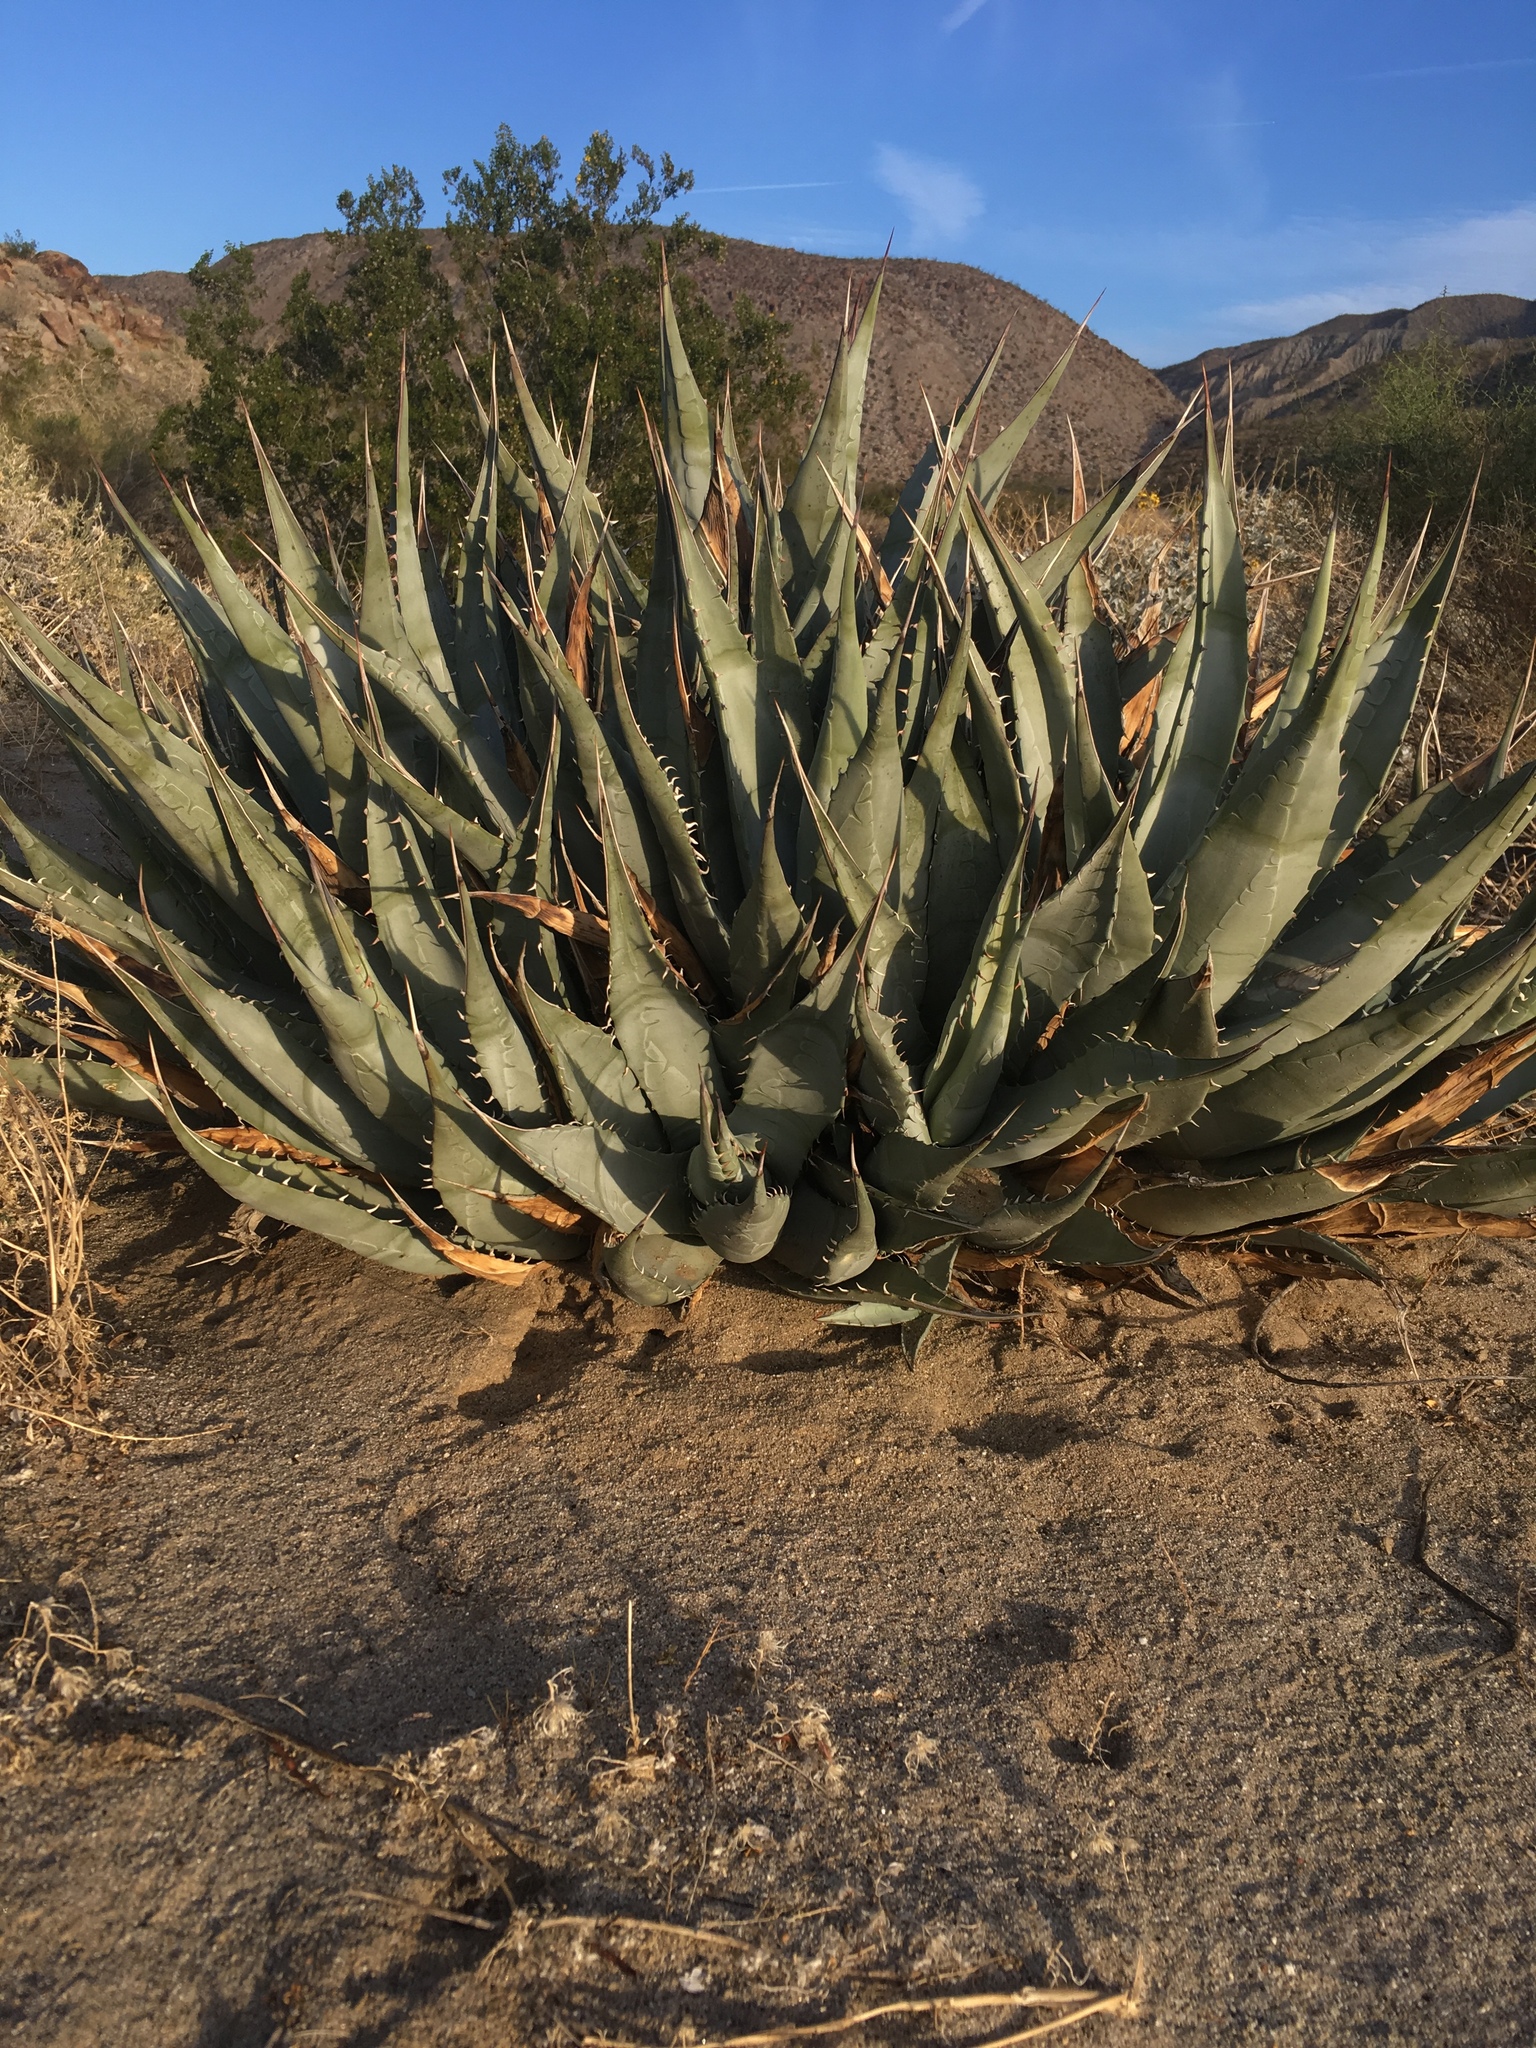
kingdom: Plantae
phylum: Tracheophyta
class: Liliopsida
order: Asparagales
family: Asparagaceae
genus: Agave
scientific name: Agave deserti
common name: Desert agave
